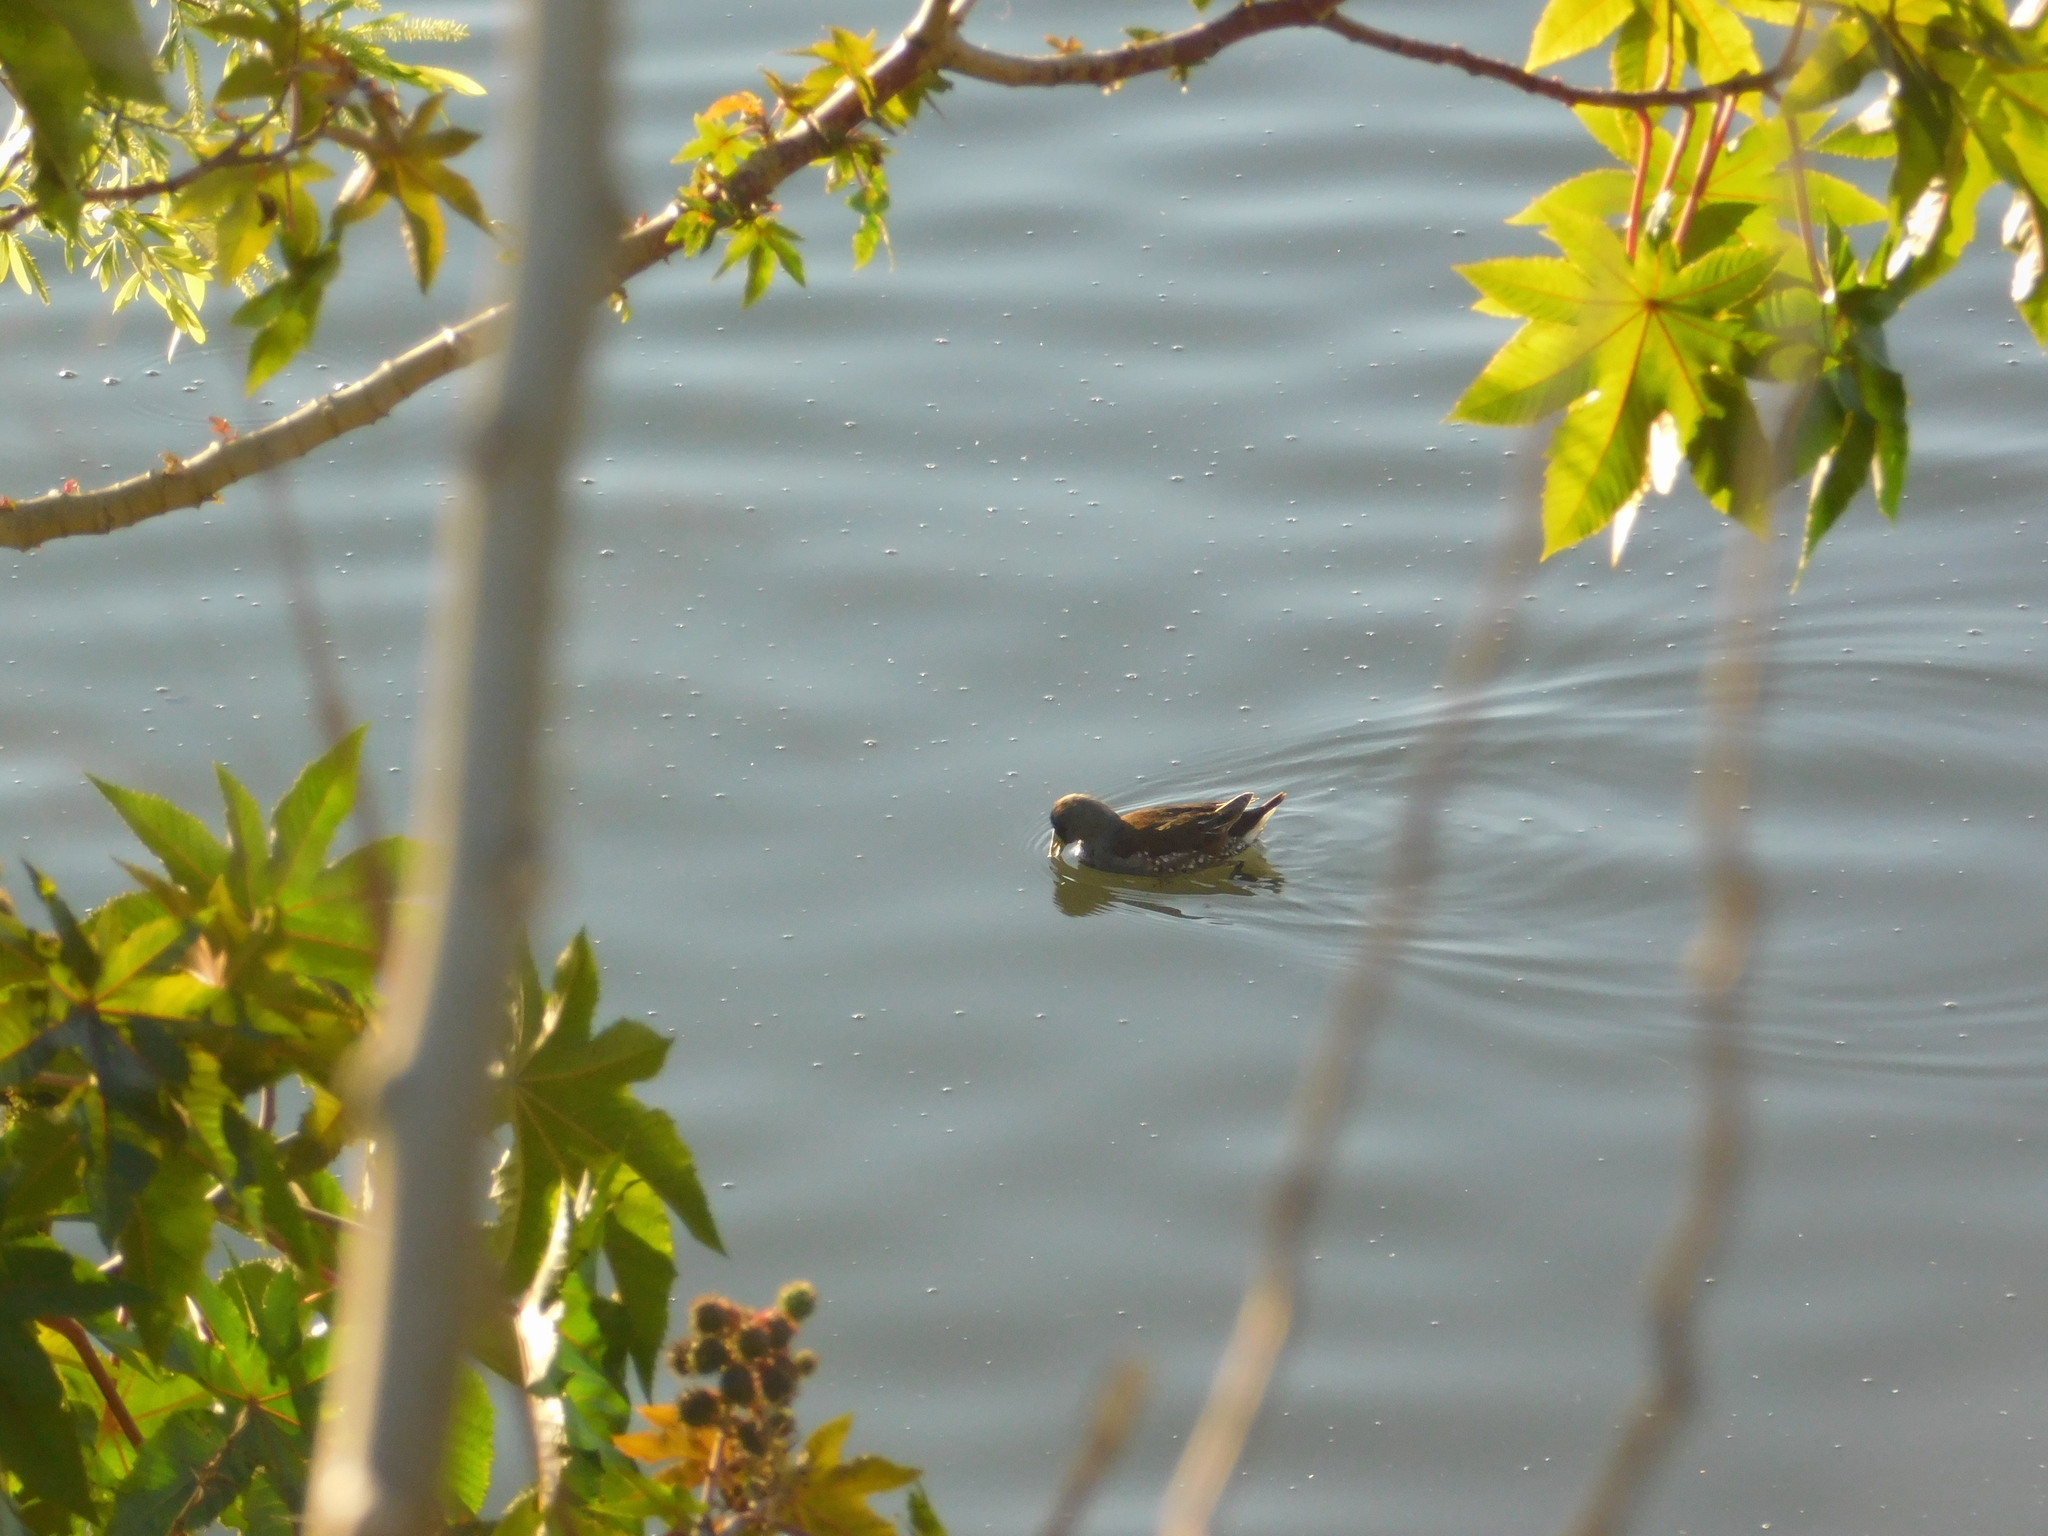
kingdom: Animalia
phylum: Chordata
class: Aves
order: Gruiformes
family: Rallidae
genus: Gallinula
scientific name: Gallinula melanops
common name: Spot-flanked gallinule
